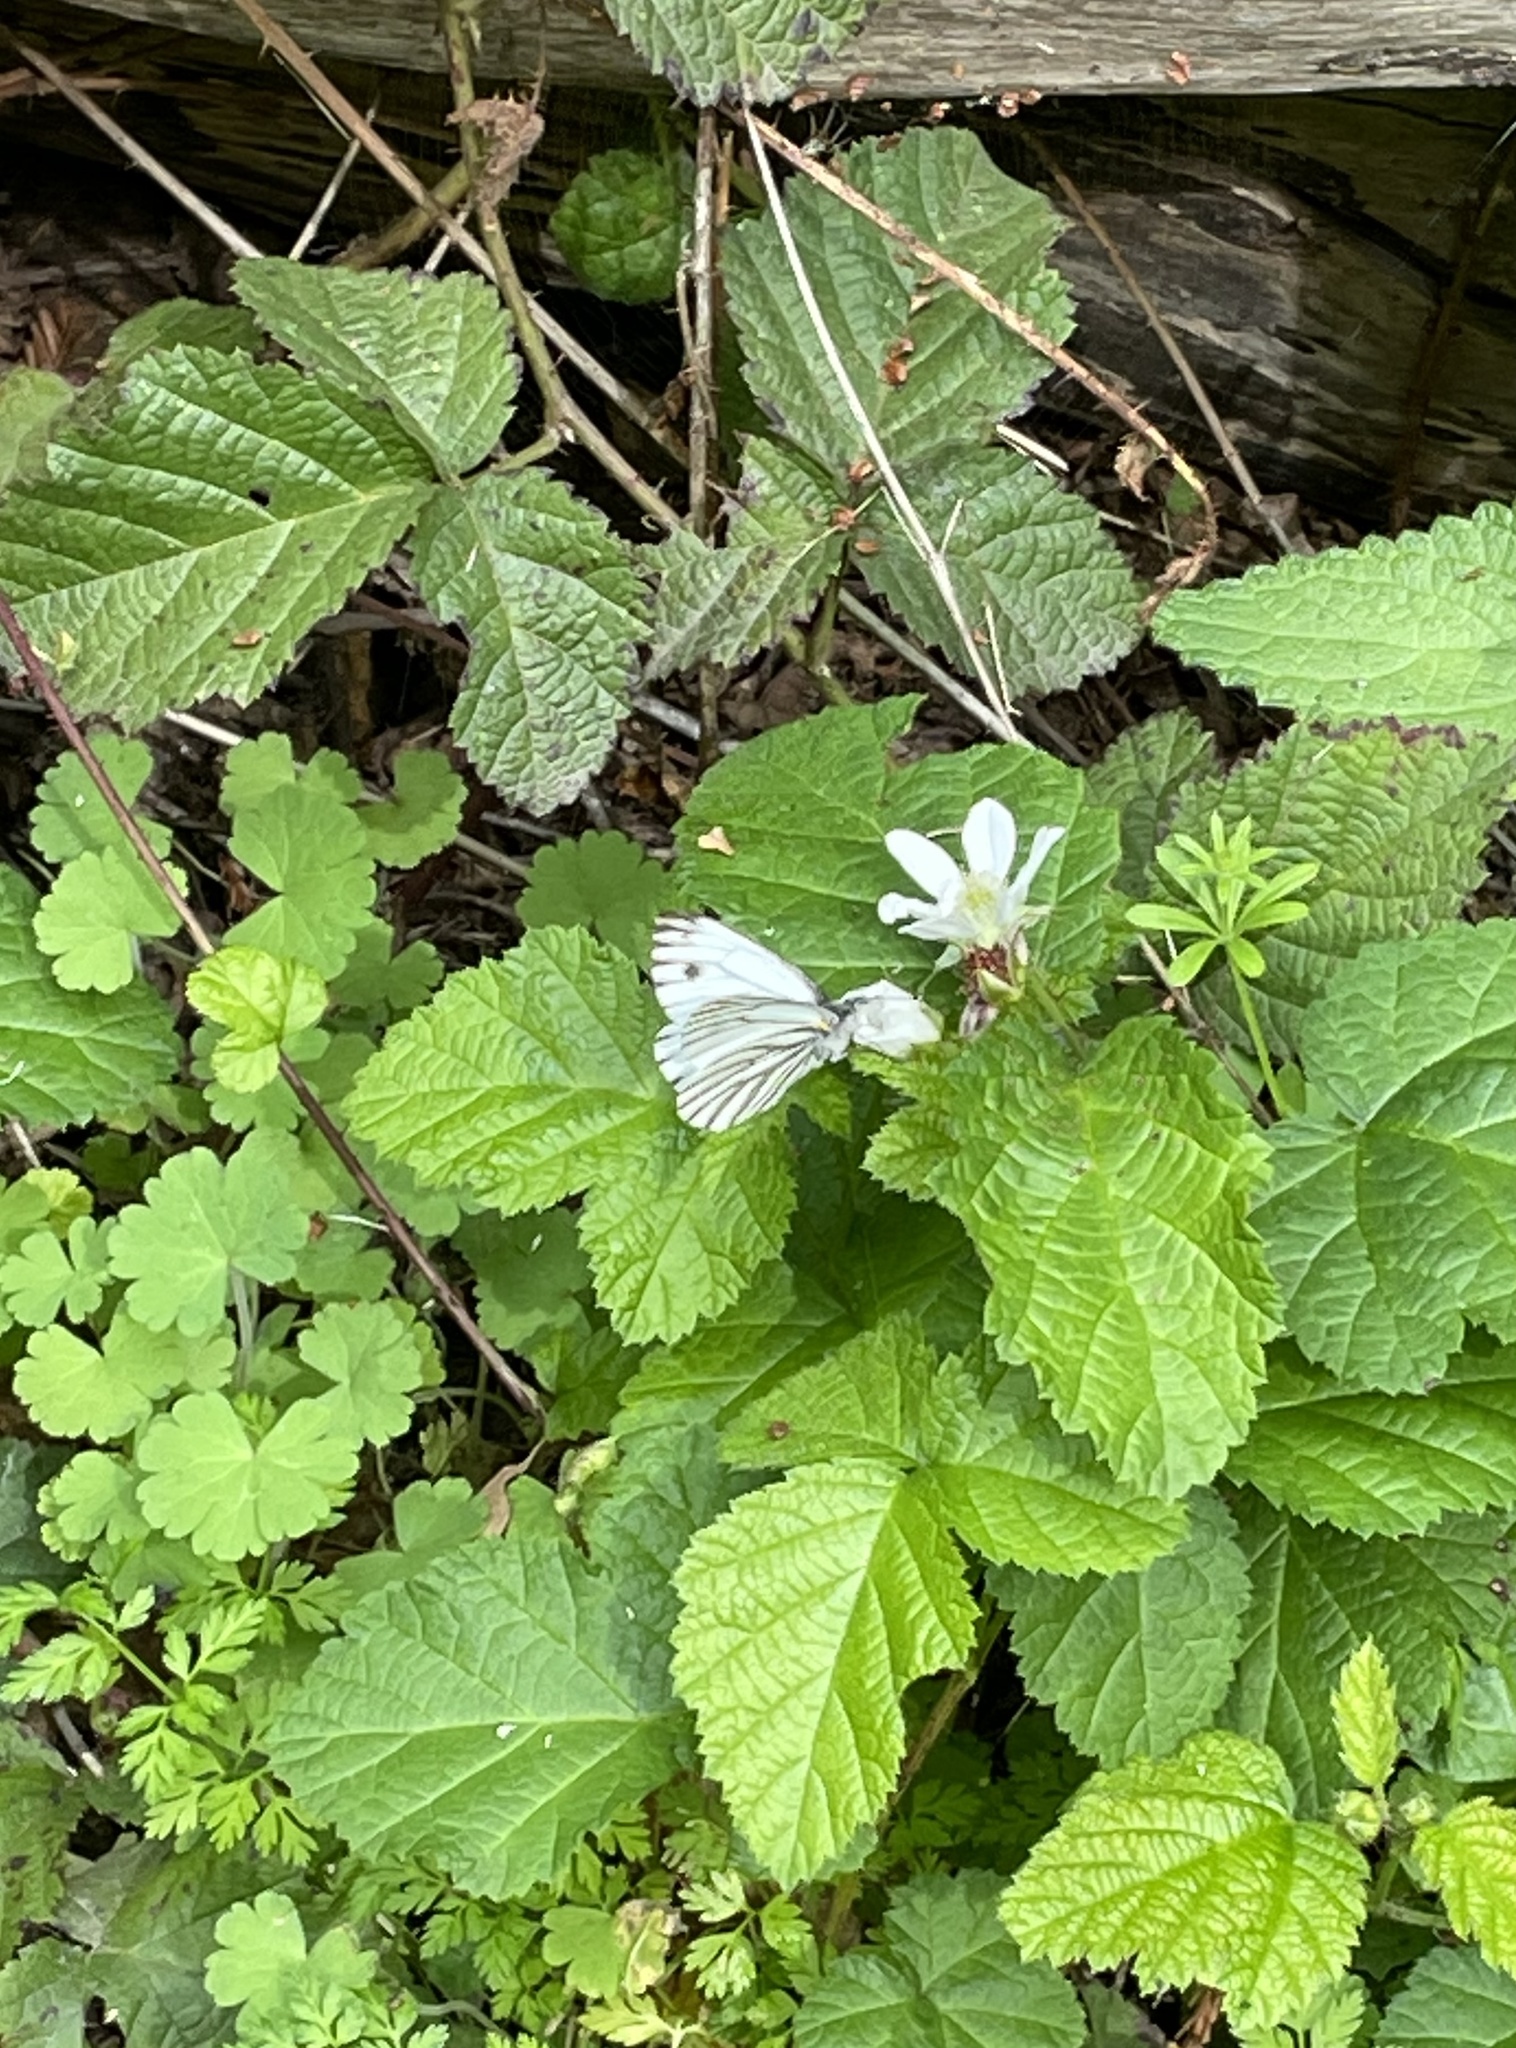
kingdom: Plantae
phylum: Tracheophyta
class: Magnoliopsida
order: Rosales
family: Rosaceae
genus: Rubus
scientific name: Rubus ursinus
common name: Pacific blackberry
